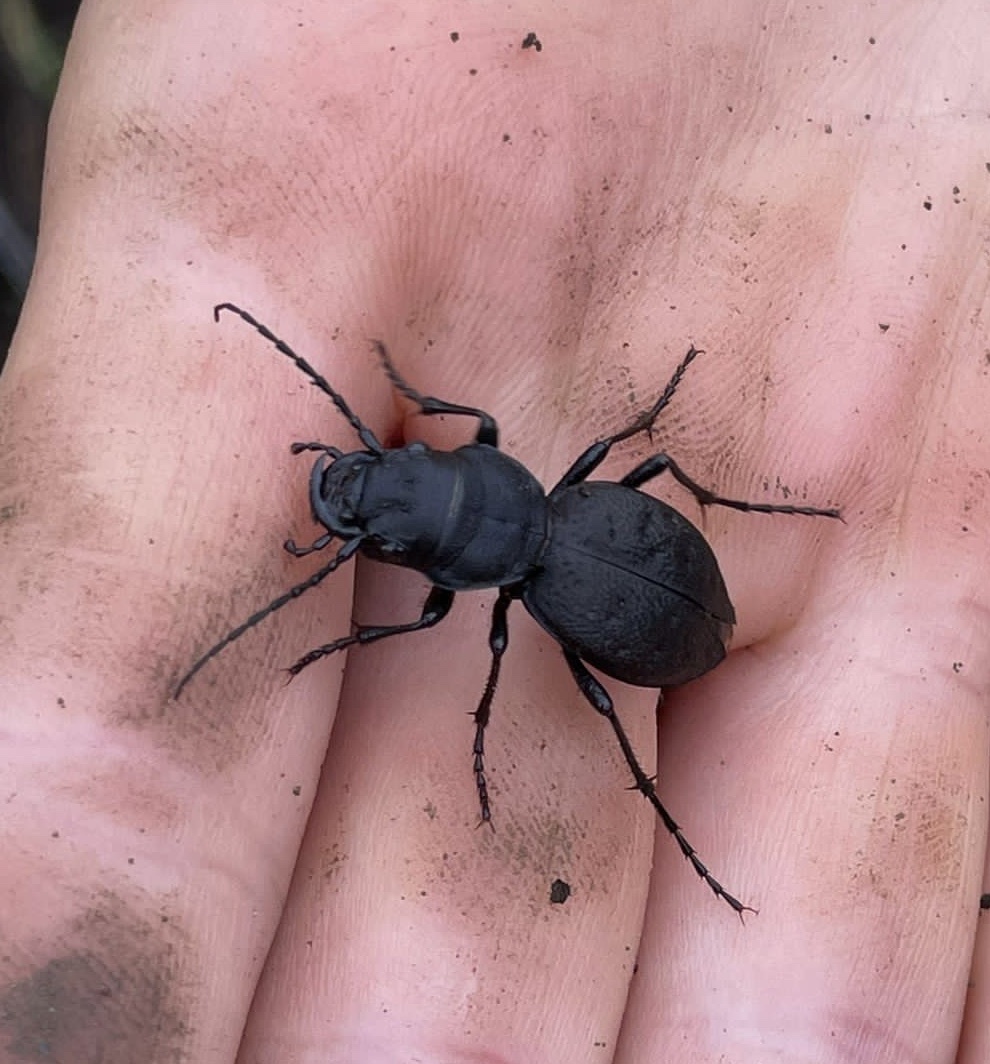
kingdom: Animalia
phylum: Arthropoda
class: Insecta
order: Coleoptera
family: Carabidae
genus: Omus
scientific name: Omus dejeanii
